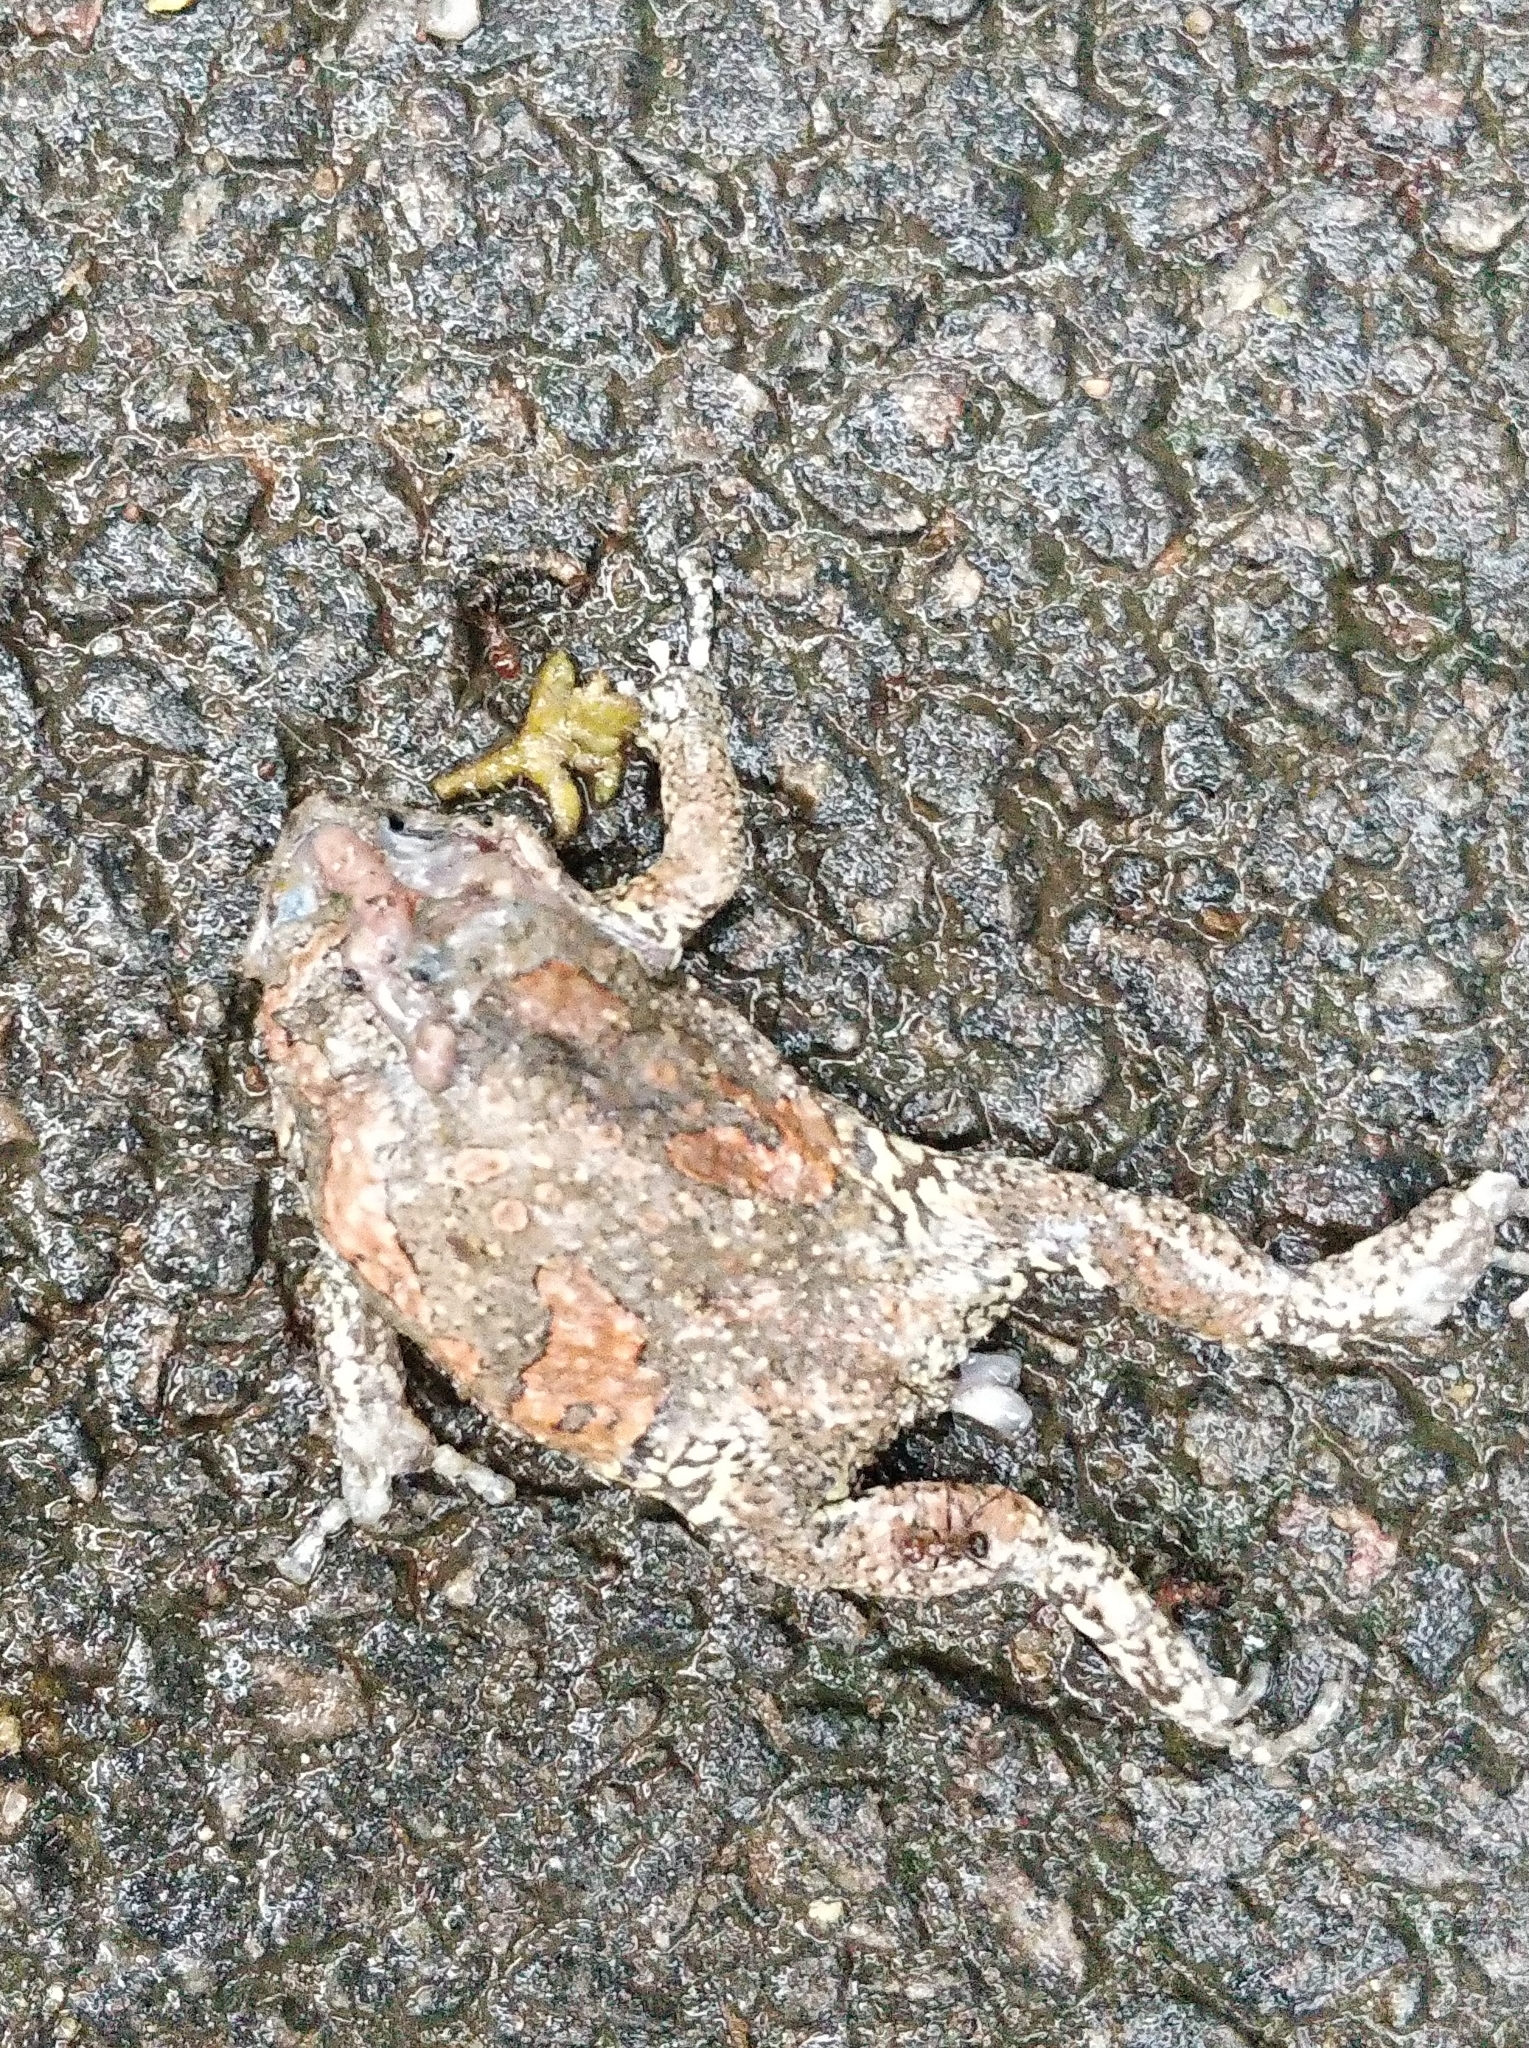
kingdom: Animalia
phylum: Chordata
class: Amphibia
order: Anura
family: Microhylidae
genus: Uperodon
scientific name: Uperodon taprobanicus
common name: Ceylon kaloula
